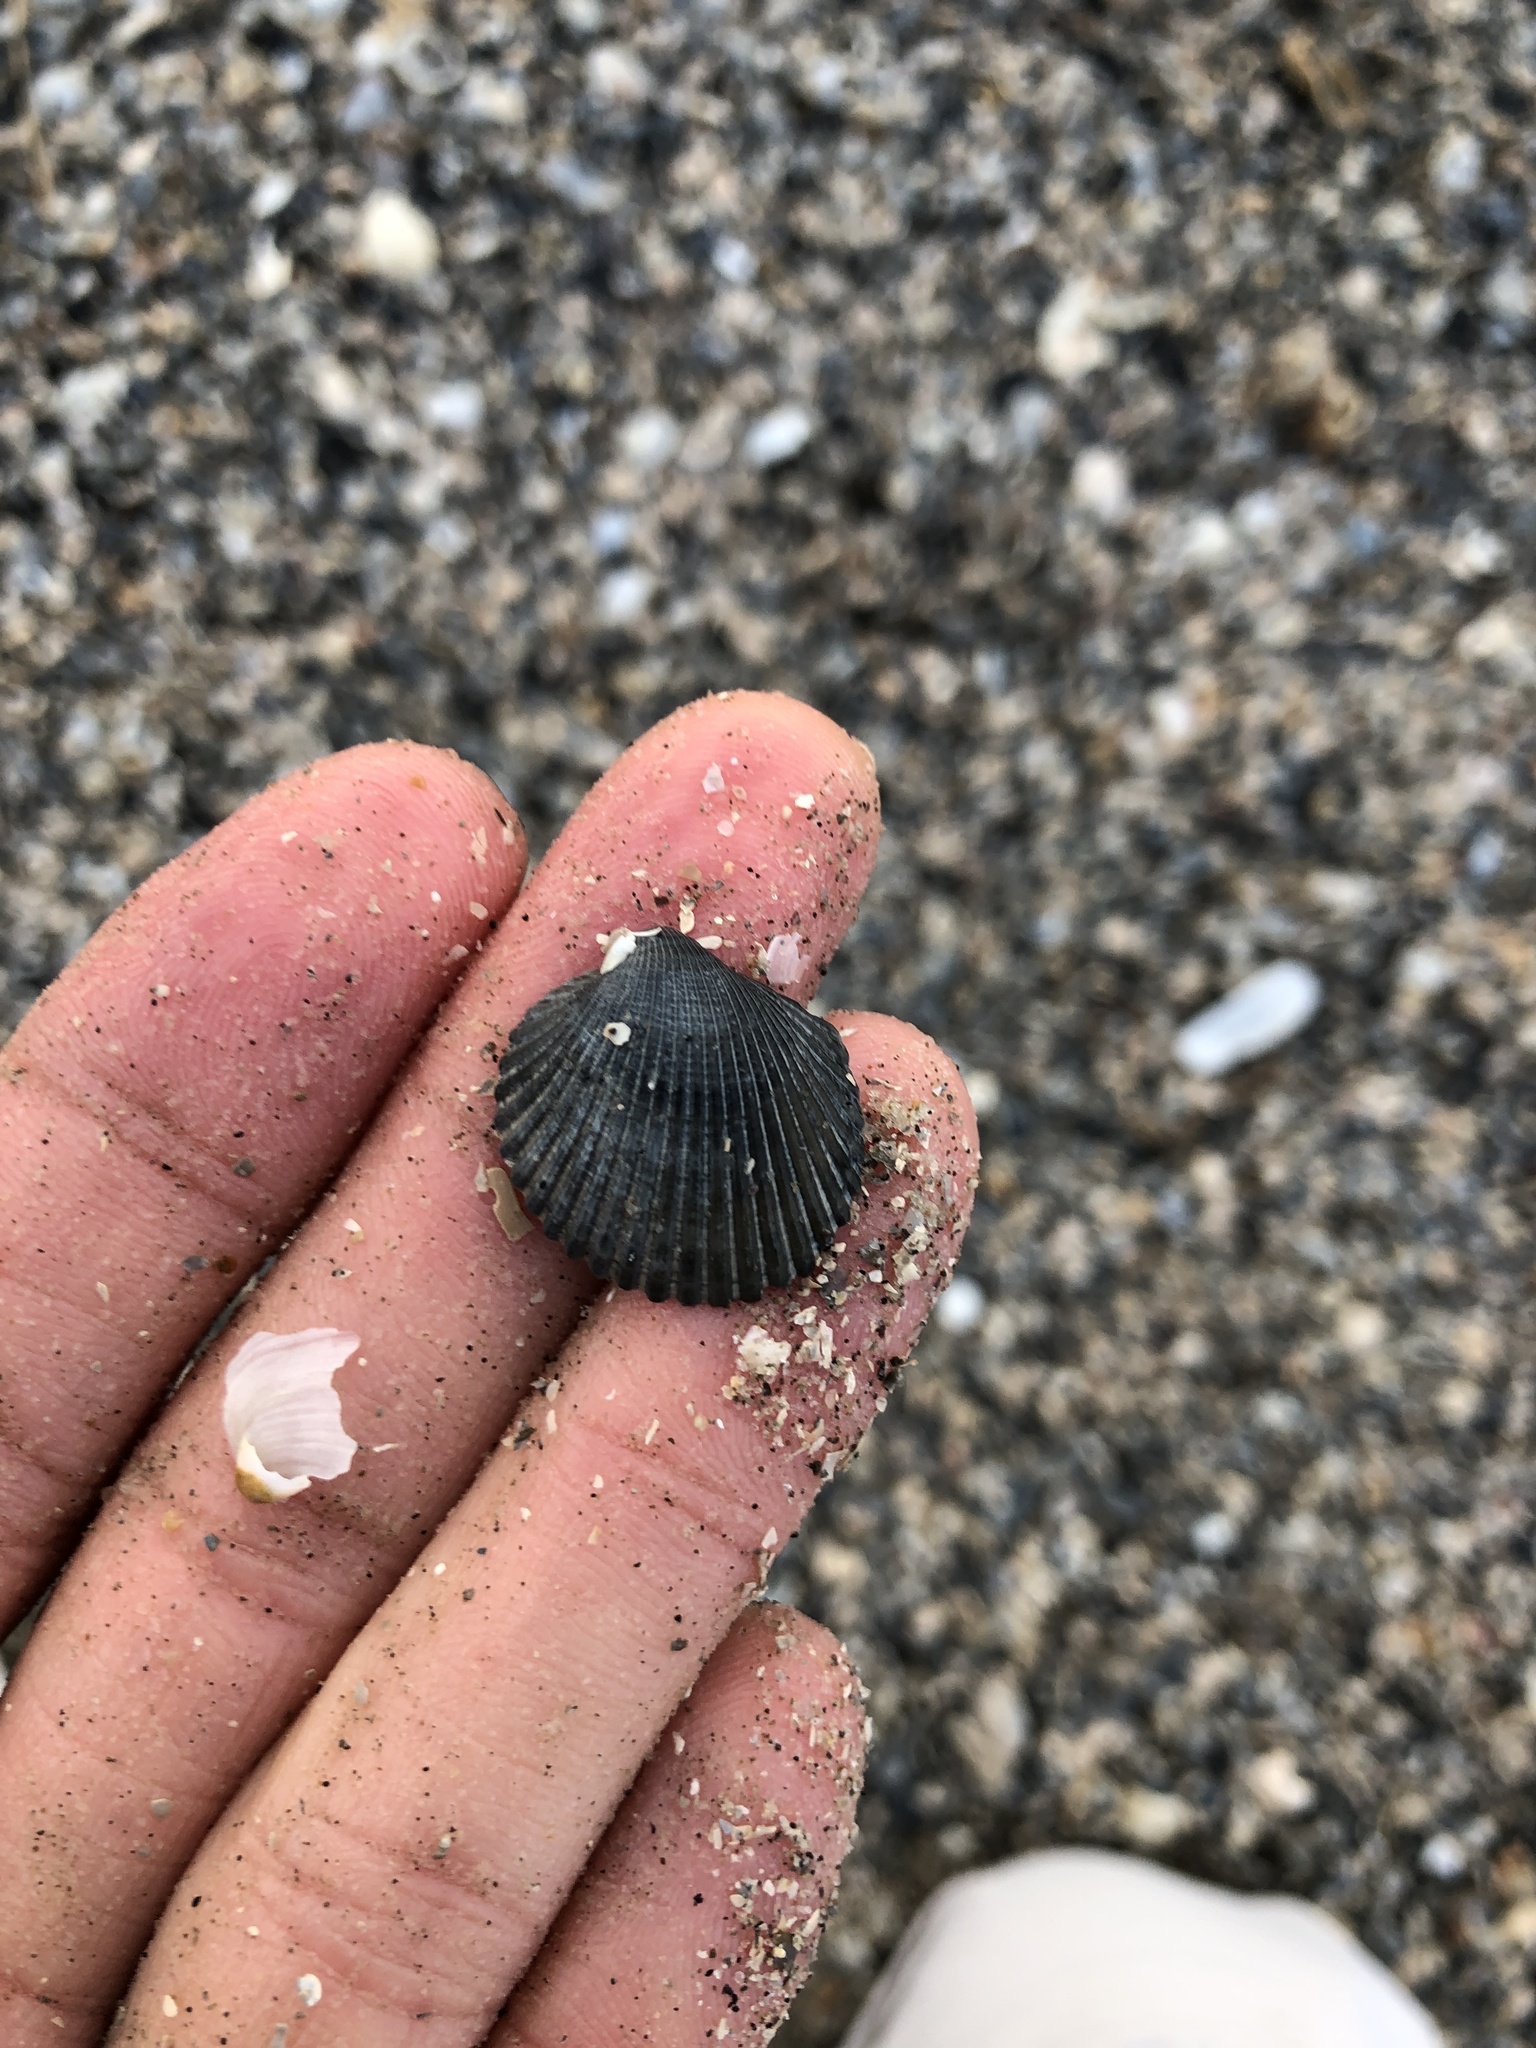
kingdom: Animalia
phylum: Mollusca
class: Bivalvia
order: Arcida
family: Arcidae
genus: Lunarca
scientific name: Lunarca ovalis
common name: Blood ark
